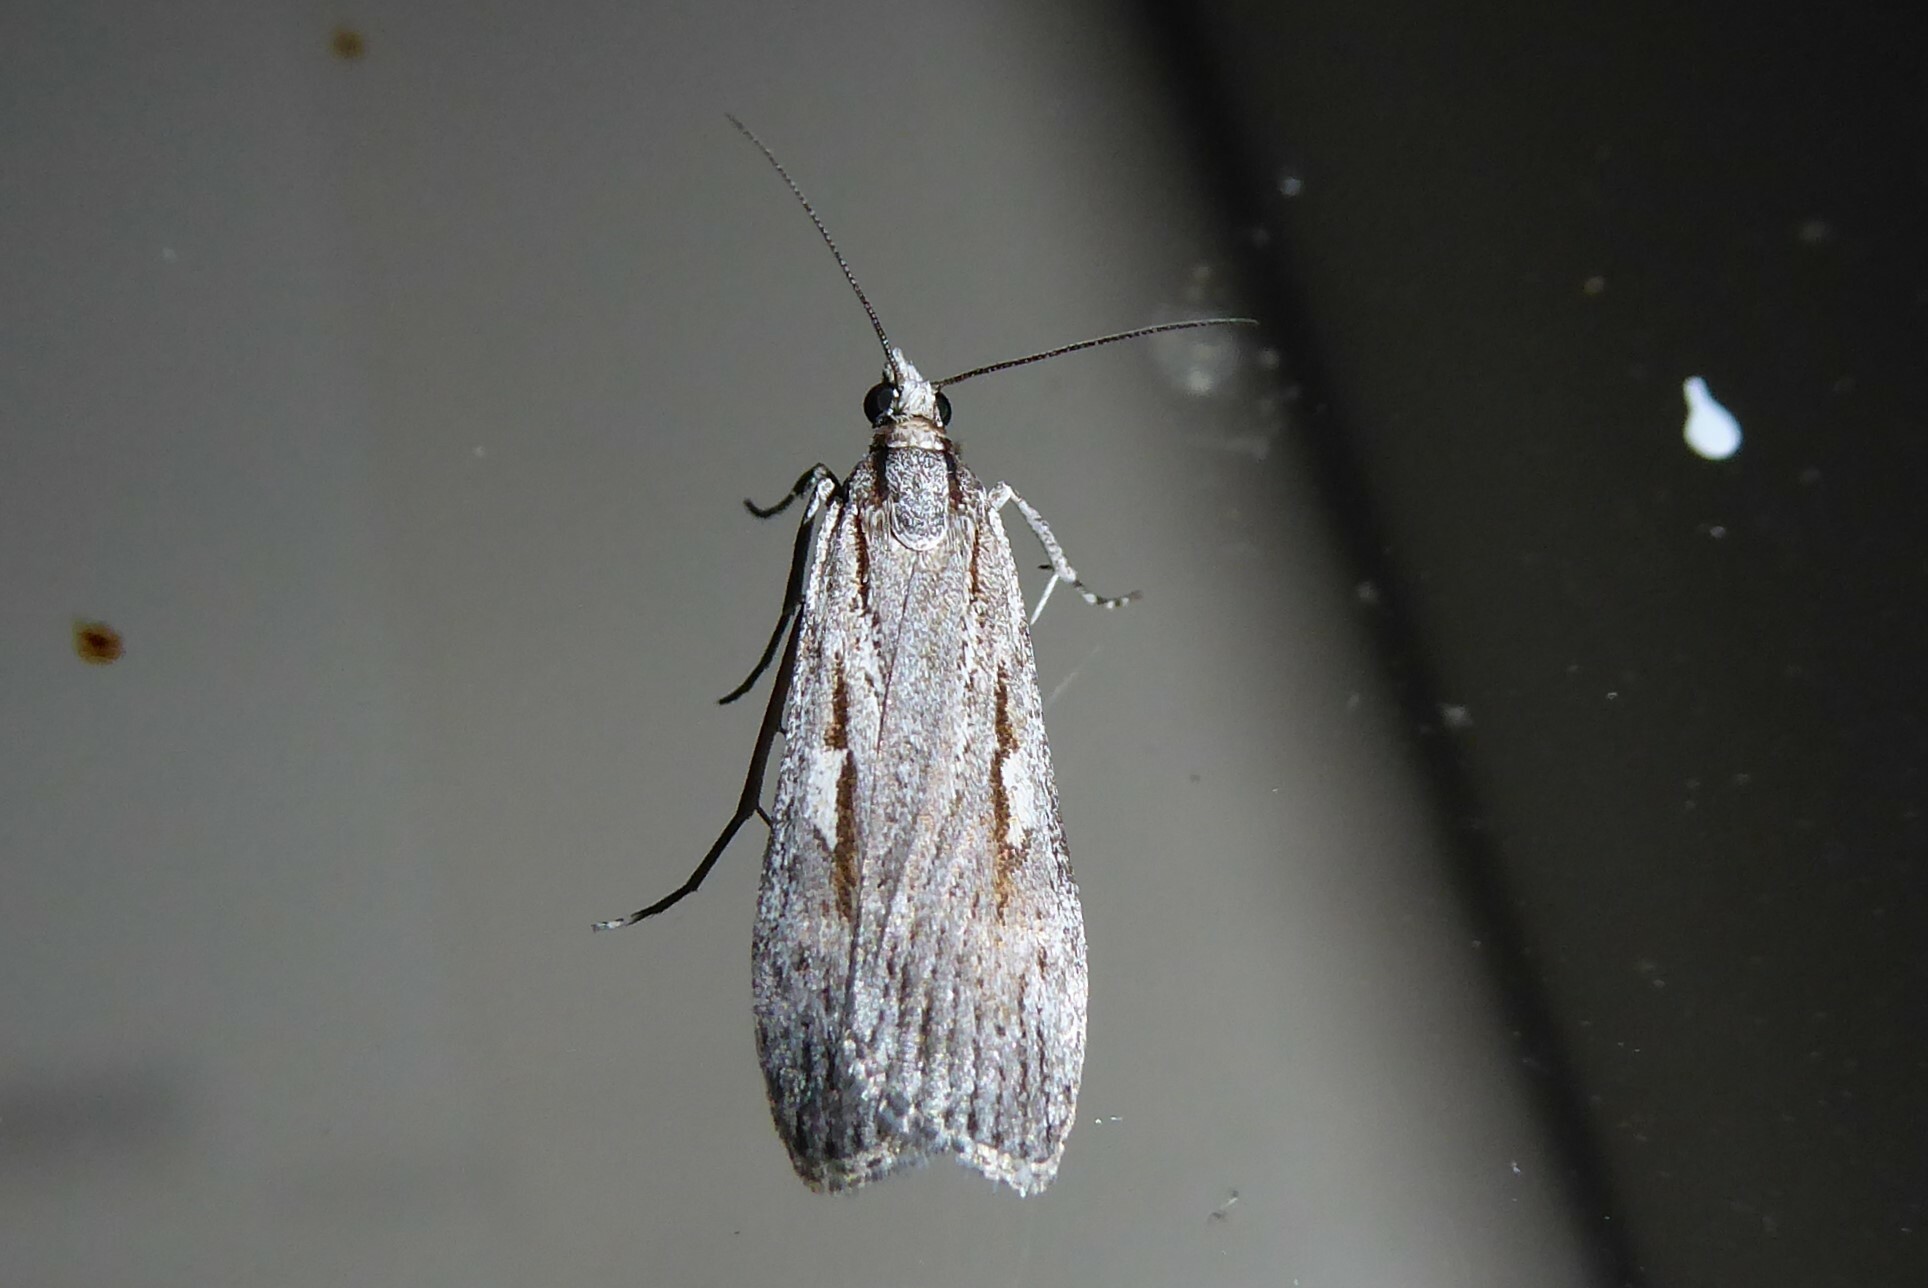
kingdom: Animalia
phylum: Arthropoda
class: Insecta
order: Lepidoptera
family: Crambidae
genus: Scoparia
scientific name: Scoparia indistinctalis
